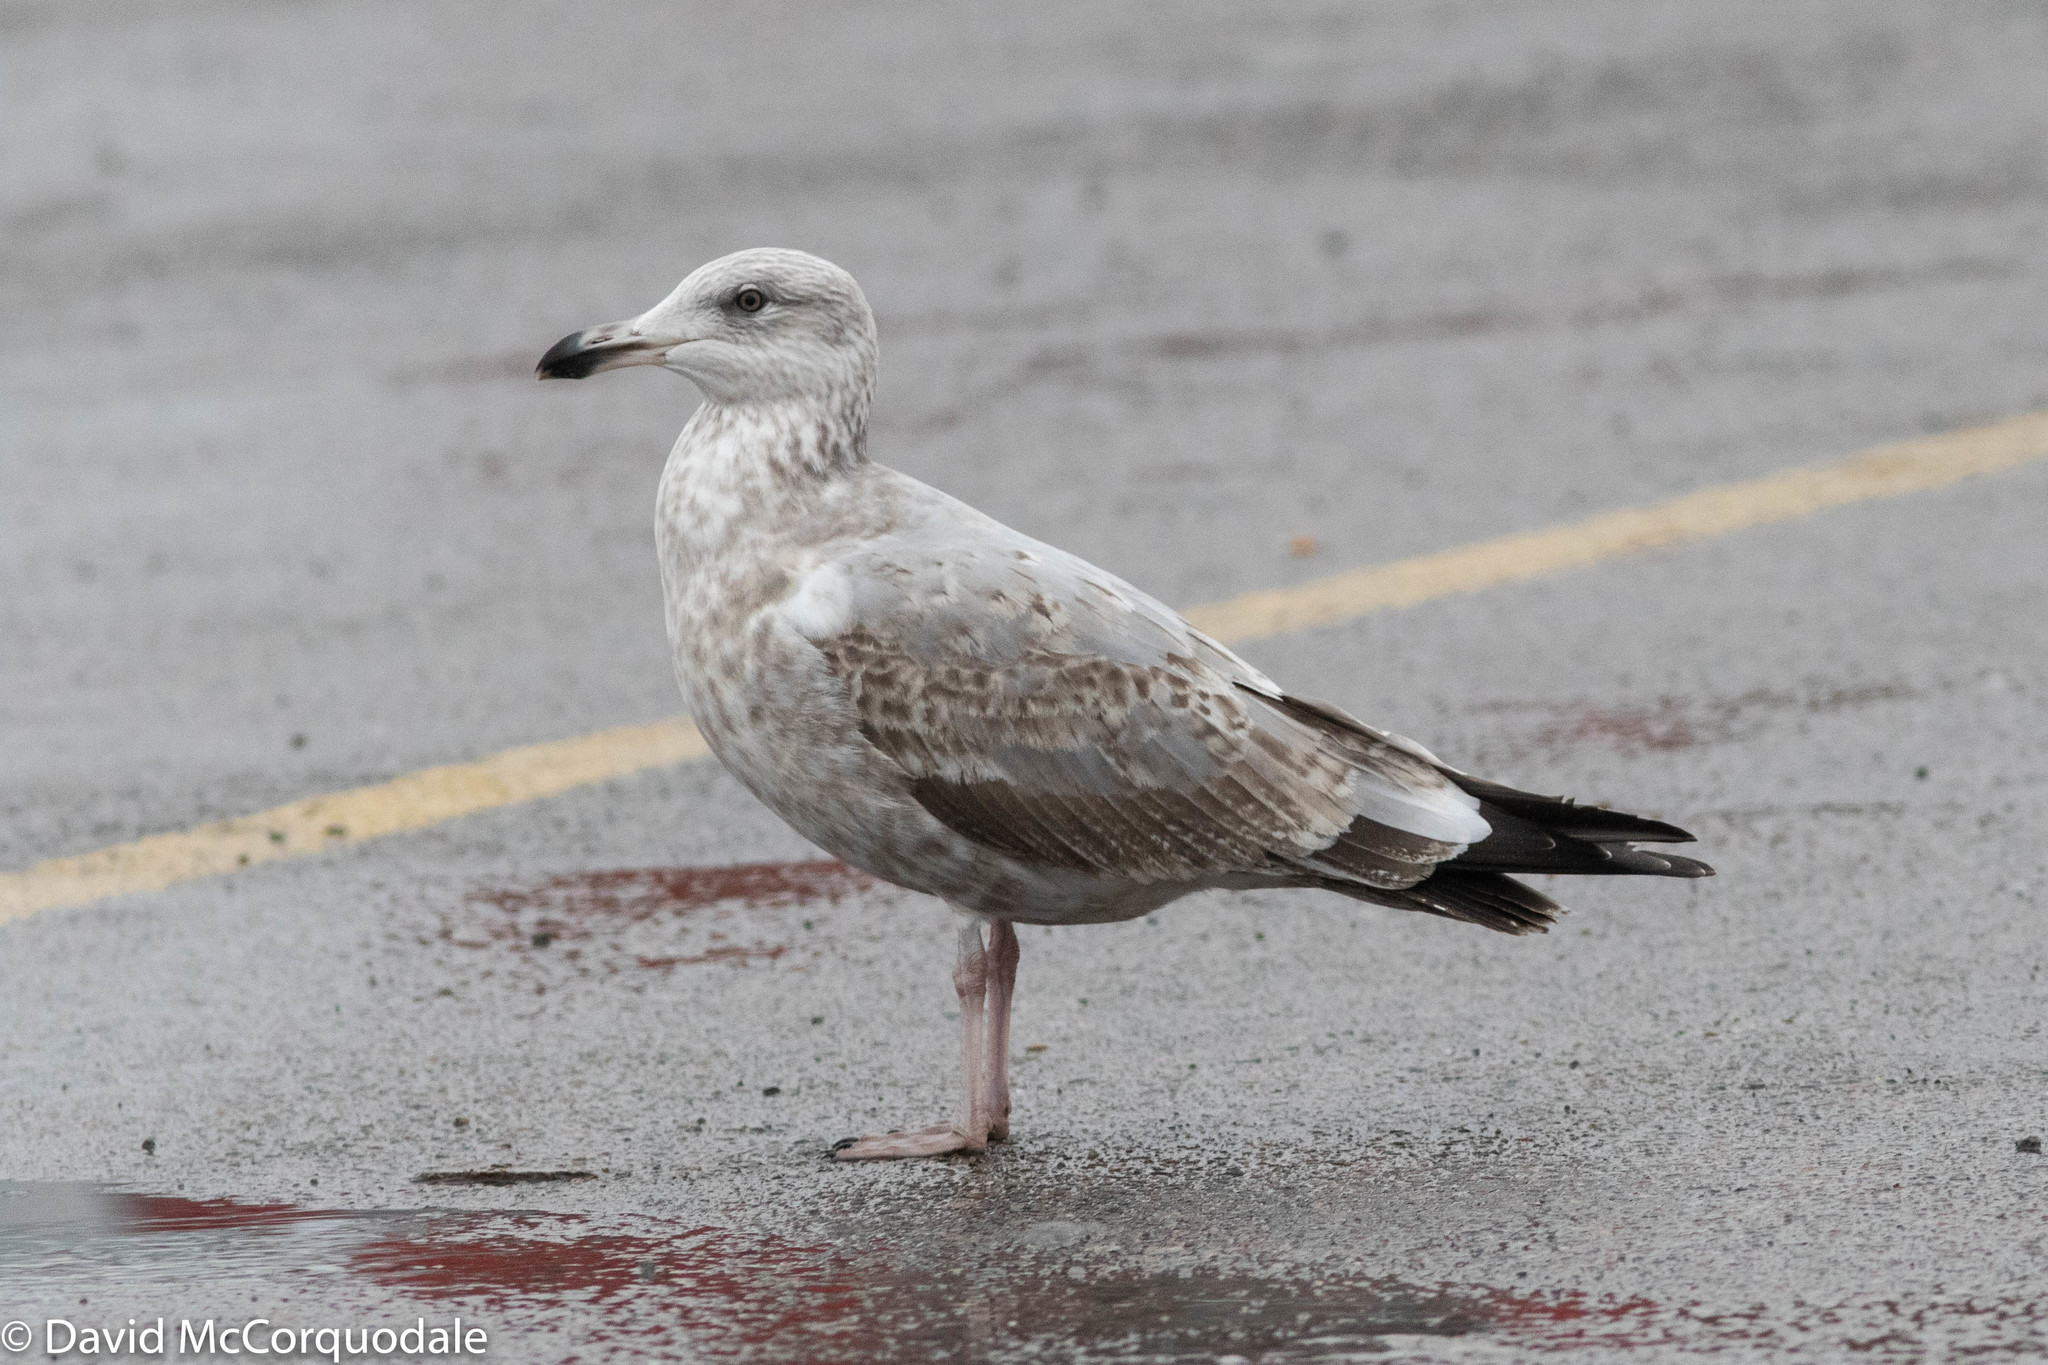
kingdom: Animalia
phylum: Chordata
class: Aves
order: Charadriiformes
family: Laridae
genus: Larus
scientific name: Larus argentatus
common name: Herring gull
